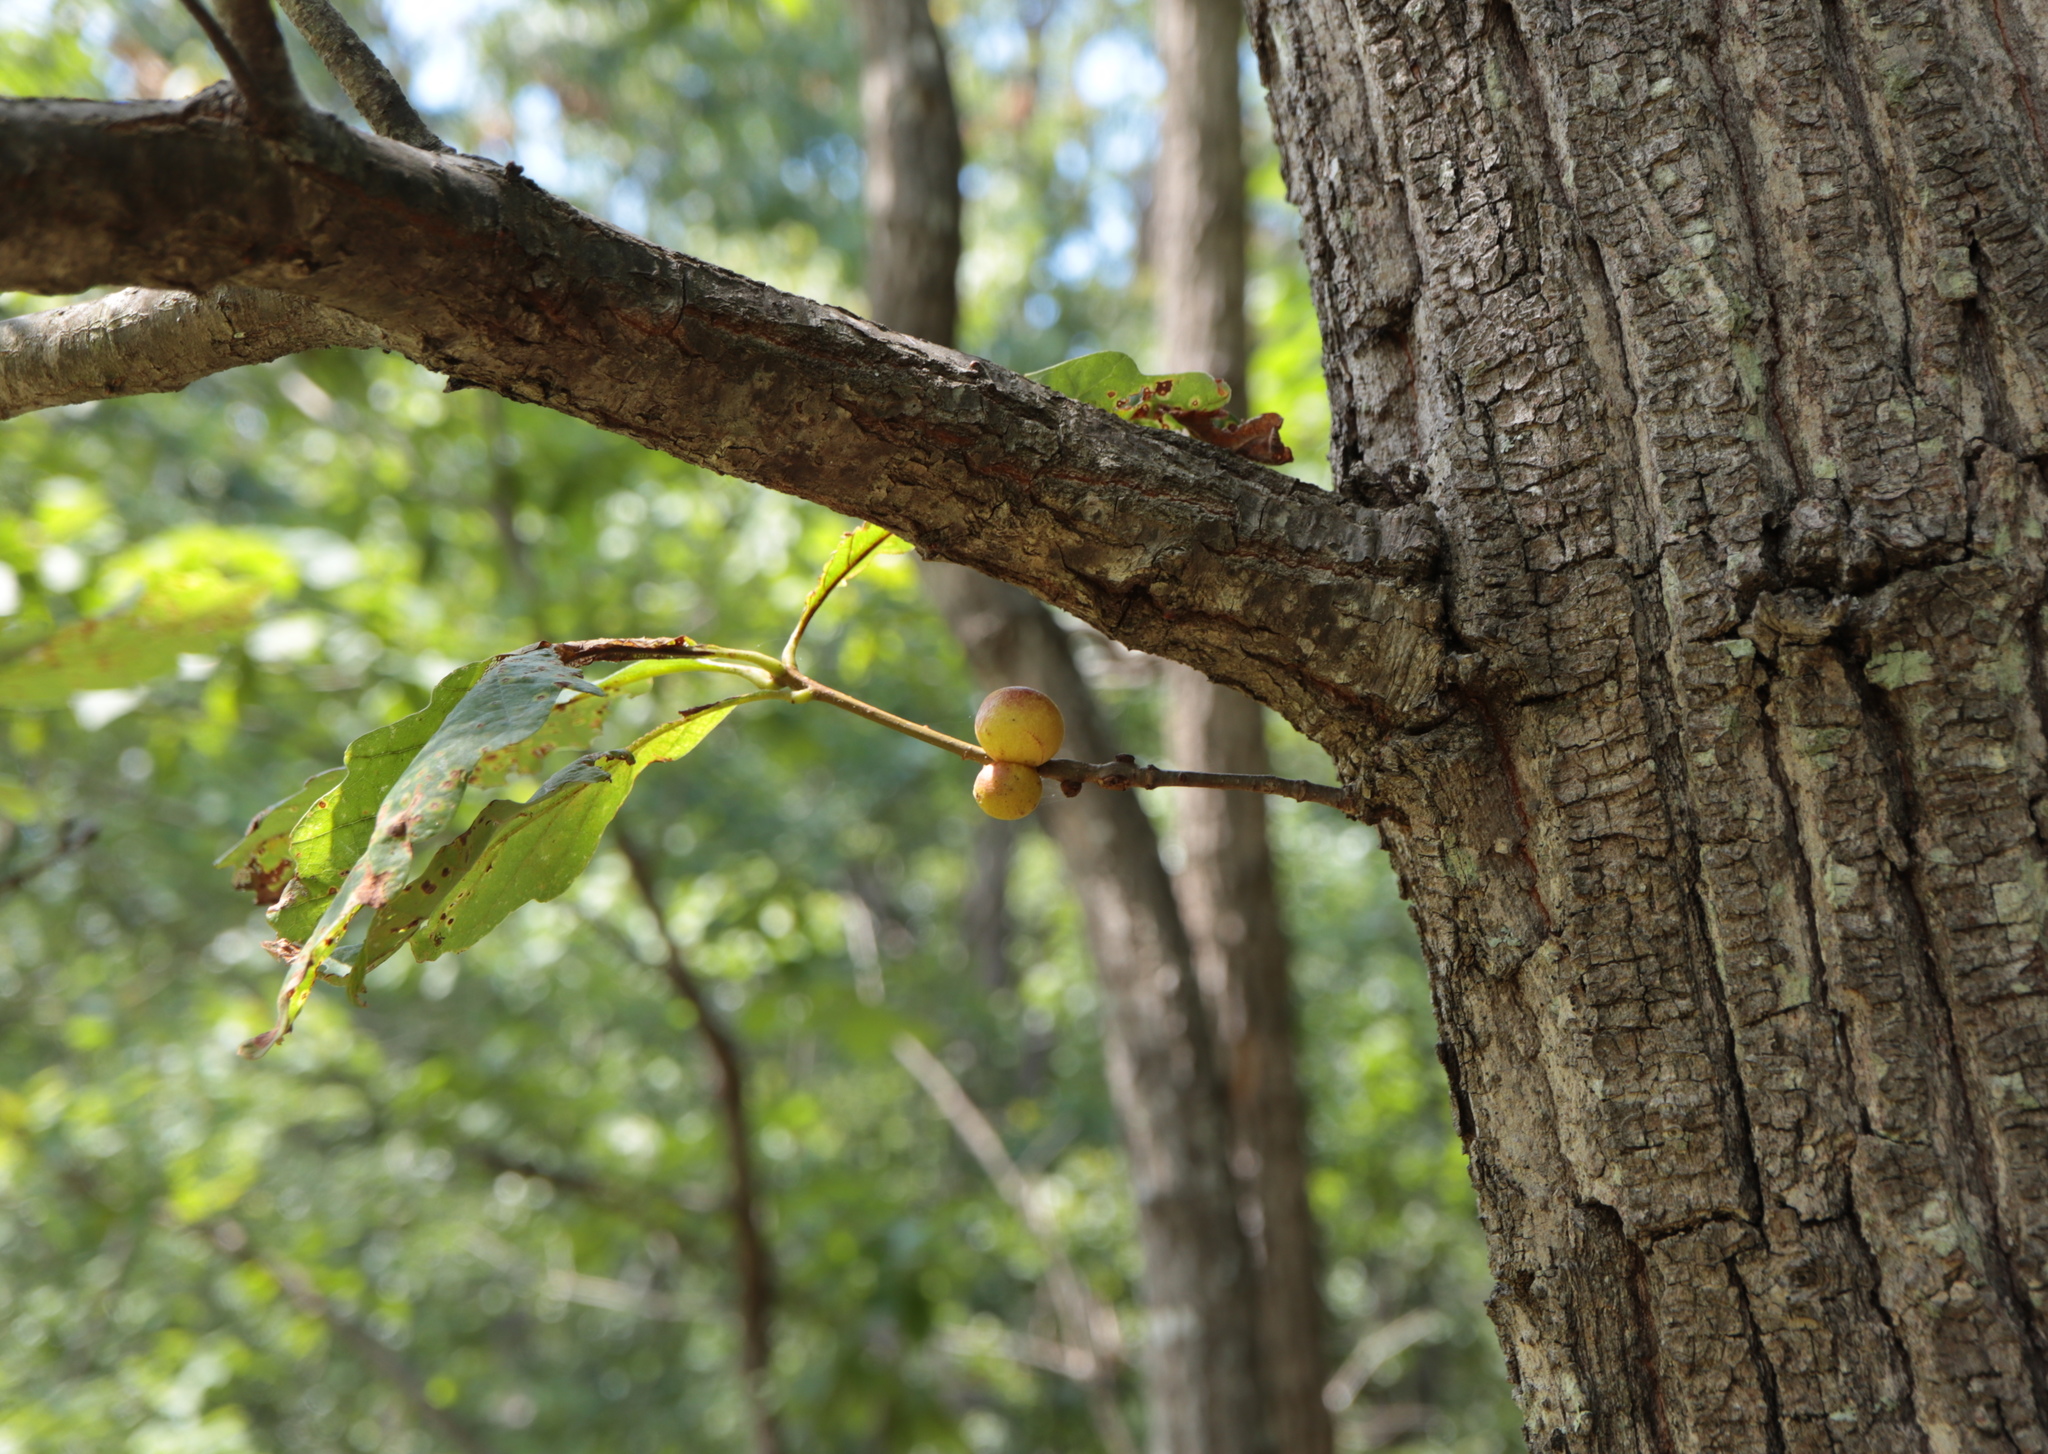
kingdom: Animalia
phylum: Arthropoda
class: Insecta
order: Hymenoptera
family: Cynipidae
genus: Disholcaspis
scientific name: Disholcaspis quercusglobulus
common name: Round bullet gall wasp
